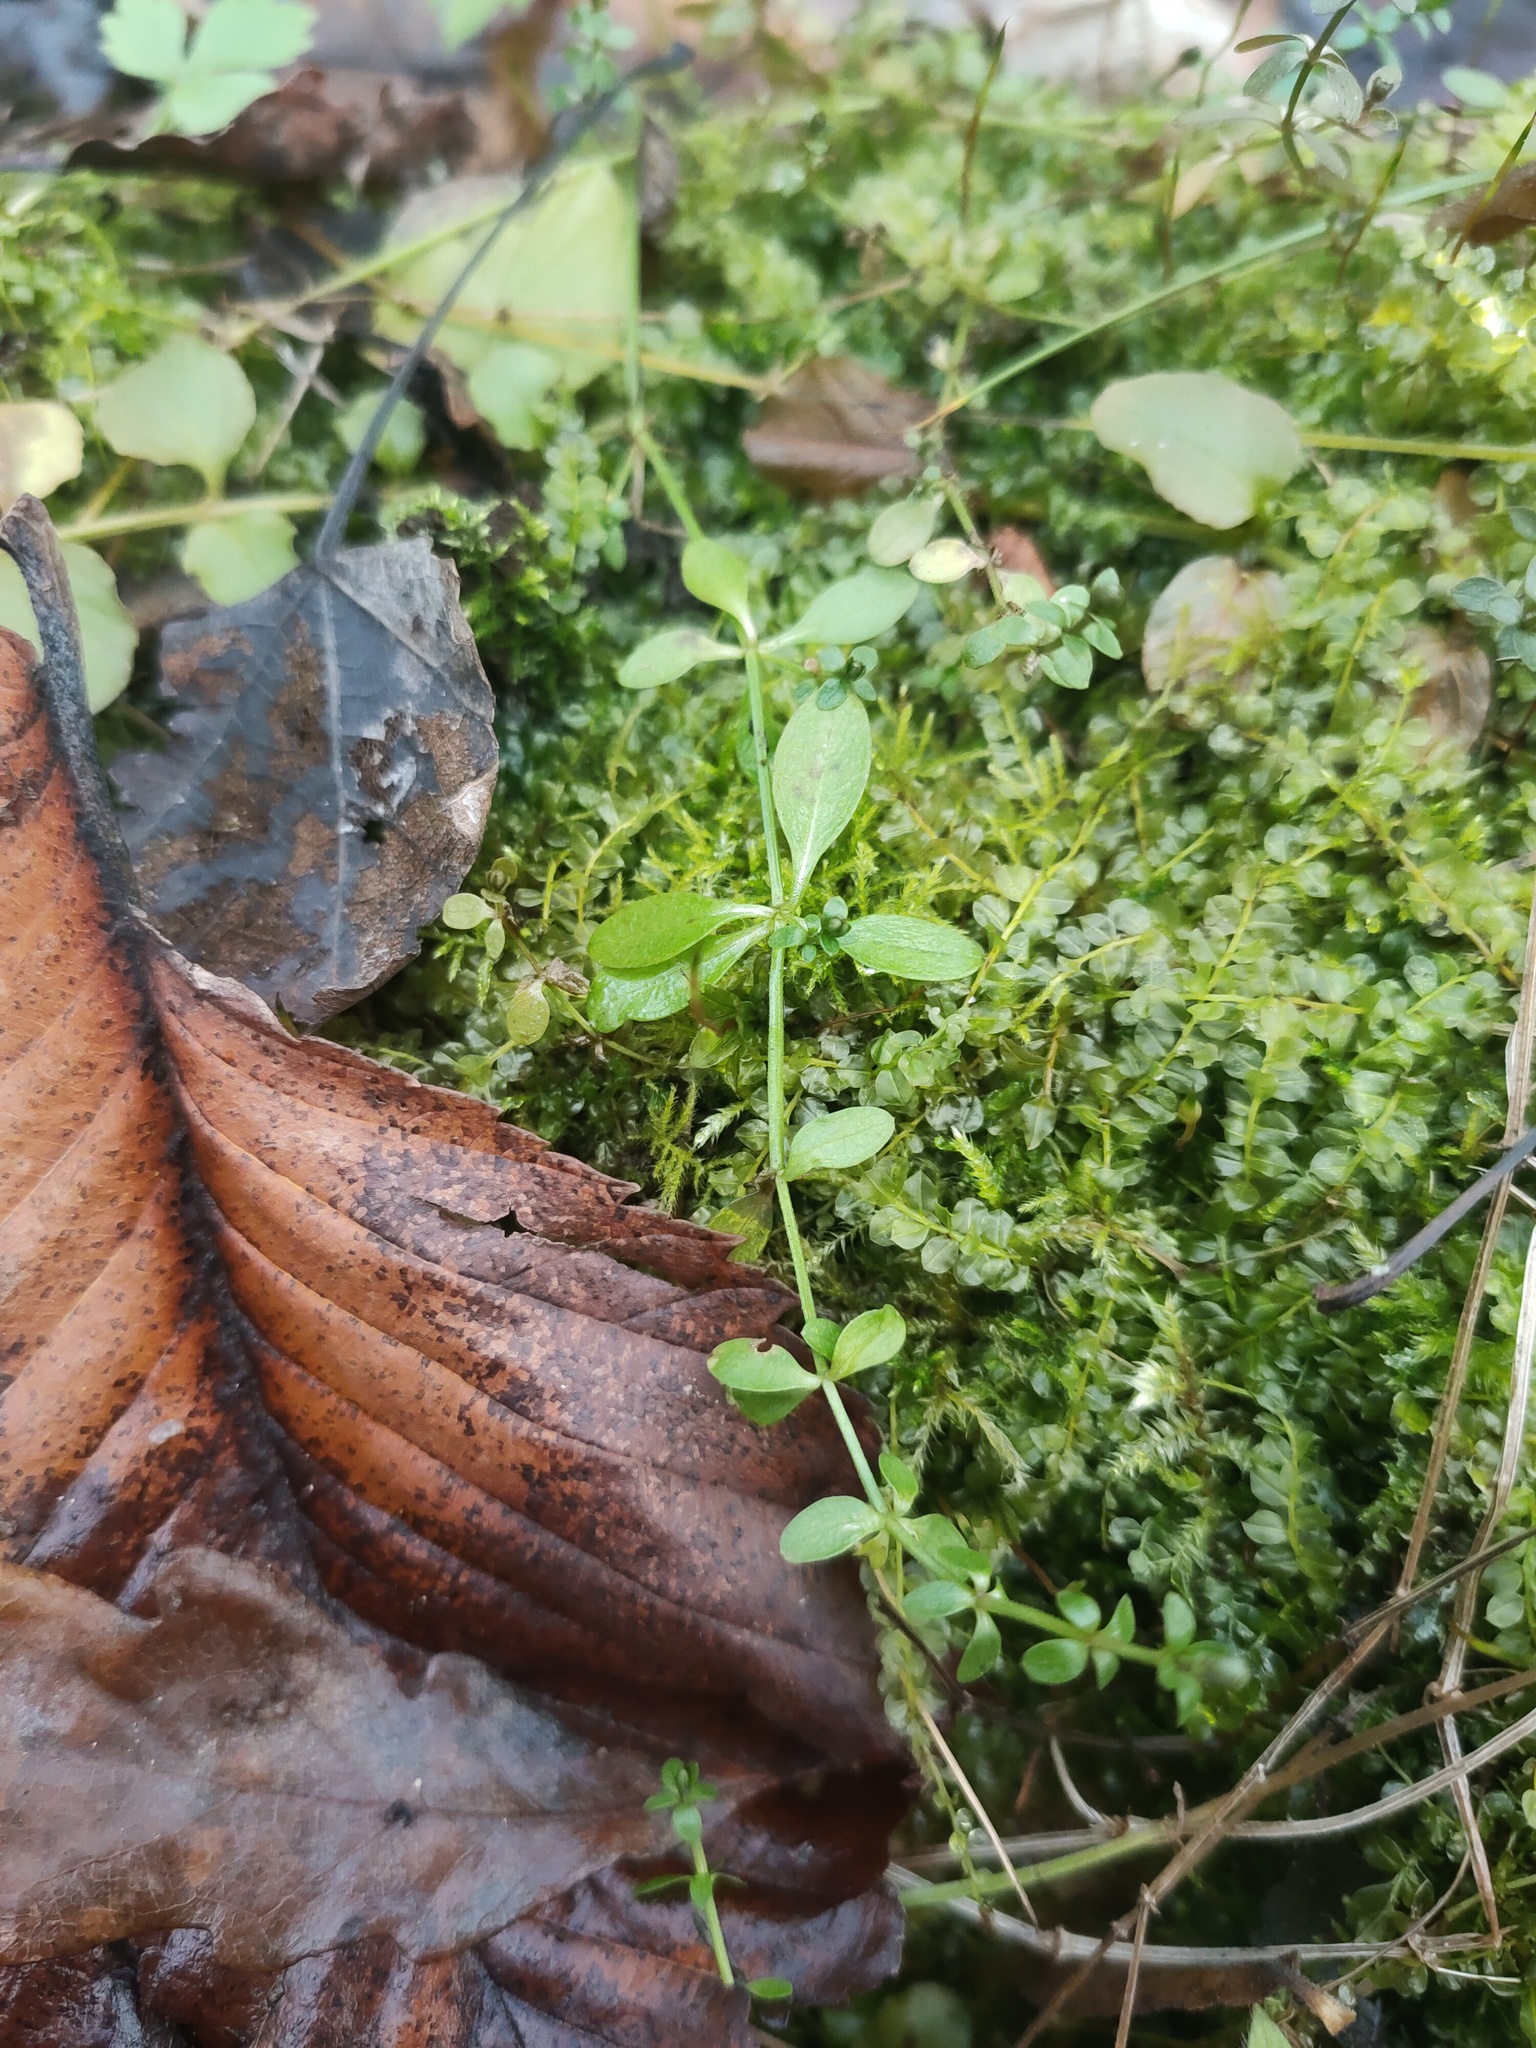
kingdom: Plantae
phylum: Tracheophyta
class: Magnoliopsida
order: Gentianales
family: Rubiaceae
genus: Galium
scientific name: Galium palustre
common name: Common marsh-bedstraw
